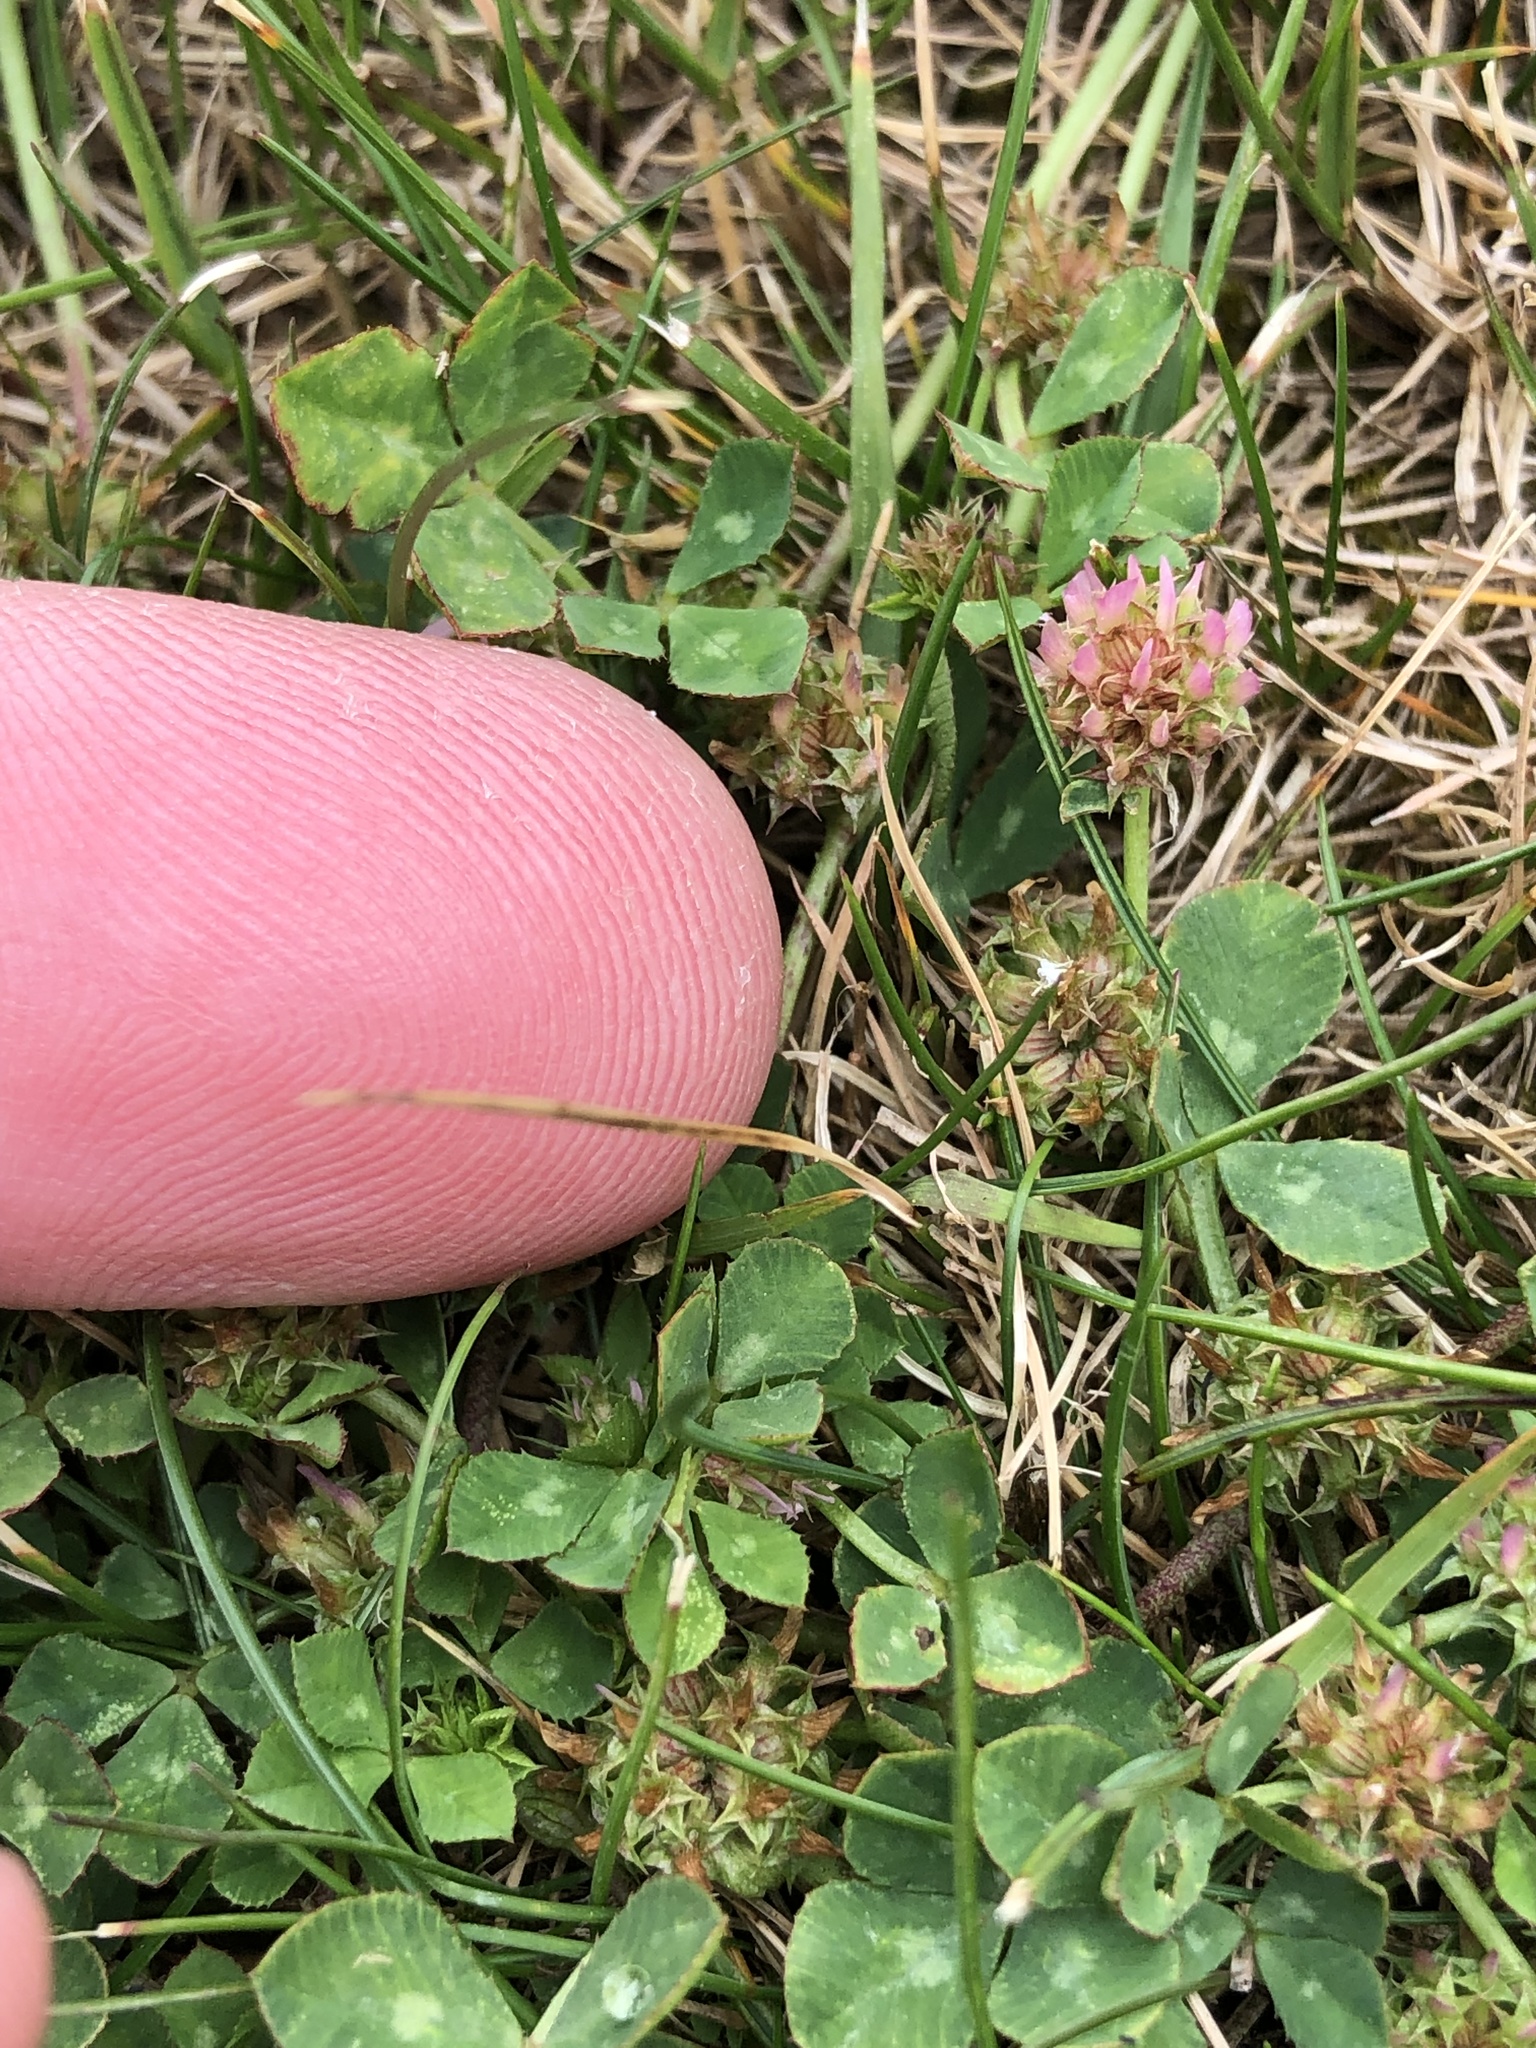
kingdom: Plantae
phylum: Tracheophyta
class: Magnoliopsida
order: Fabales
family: Fabaceae
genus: Trifolium
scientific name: Trifolium glomeratum
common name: Clustered clover
